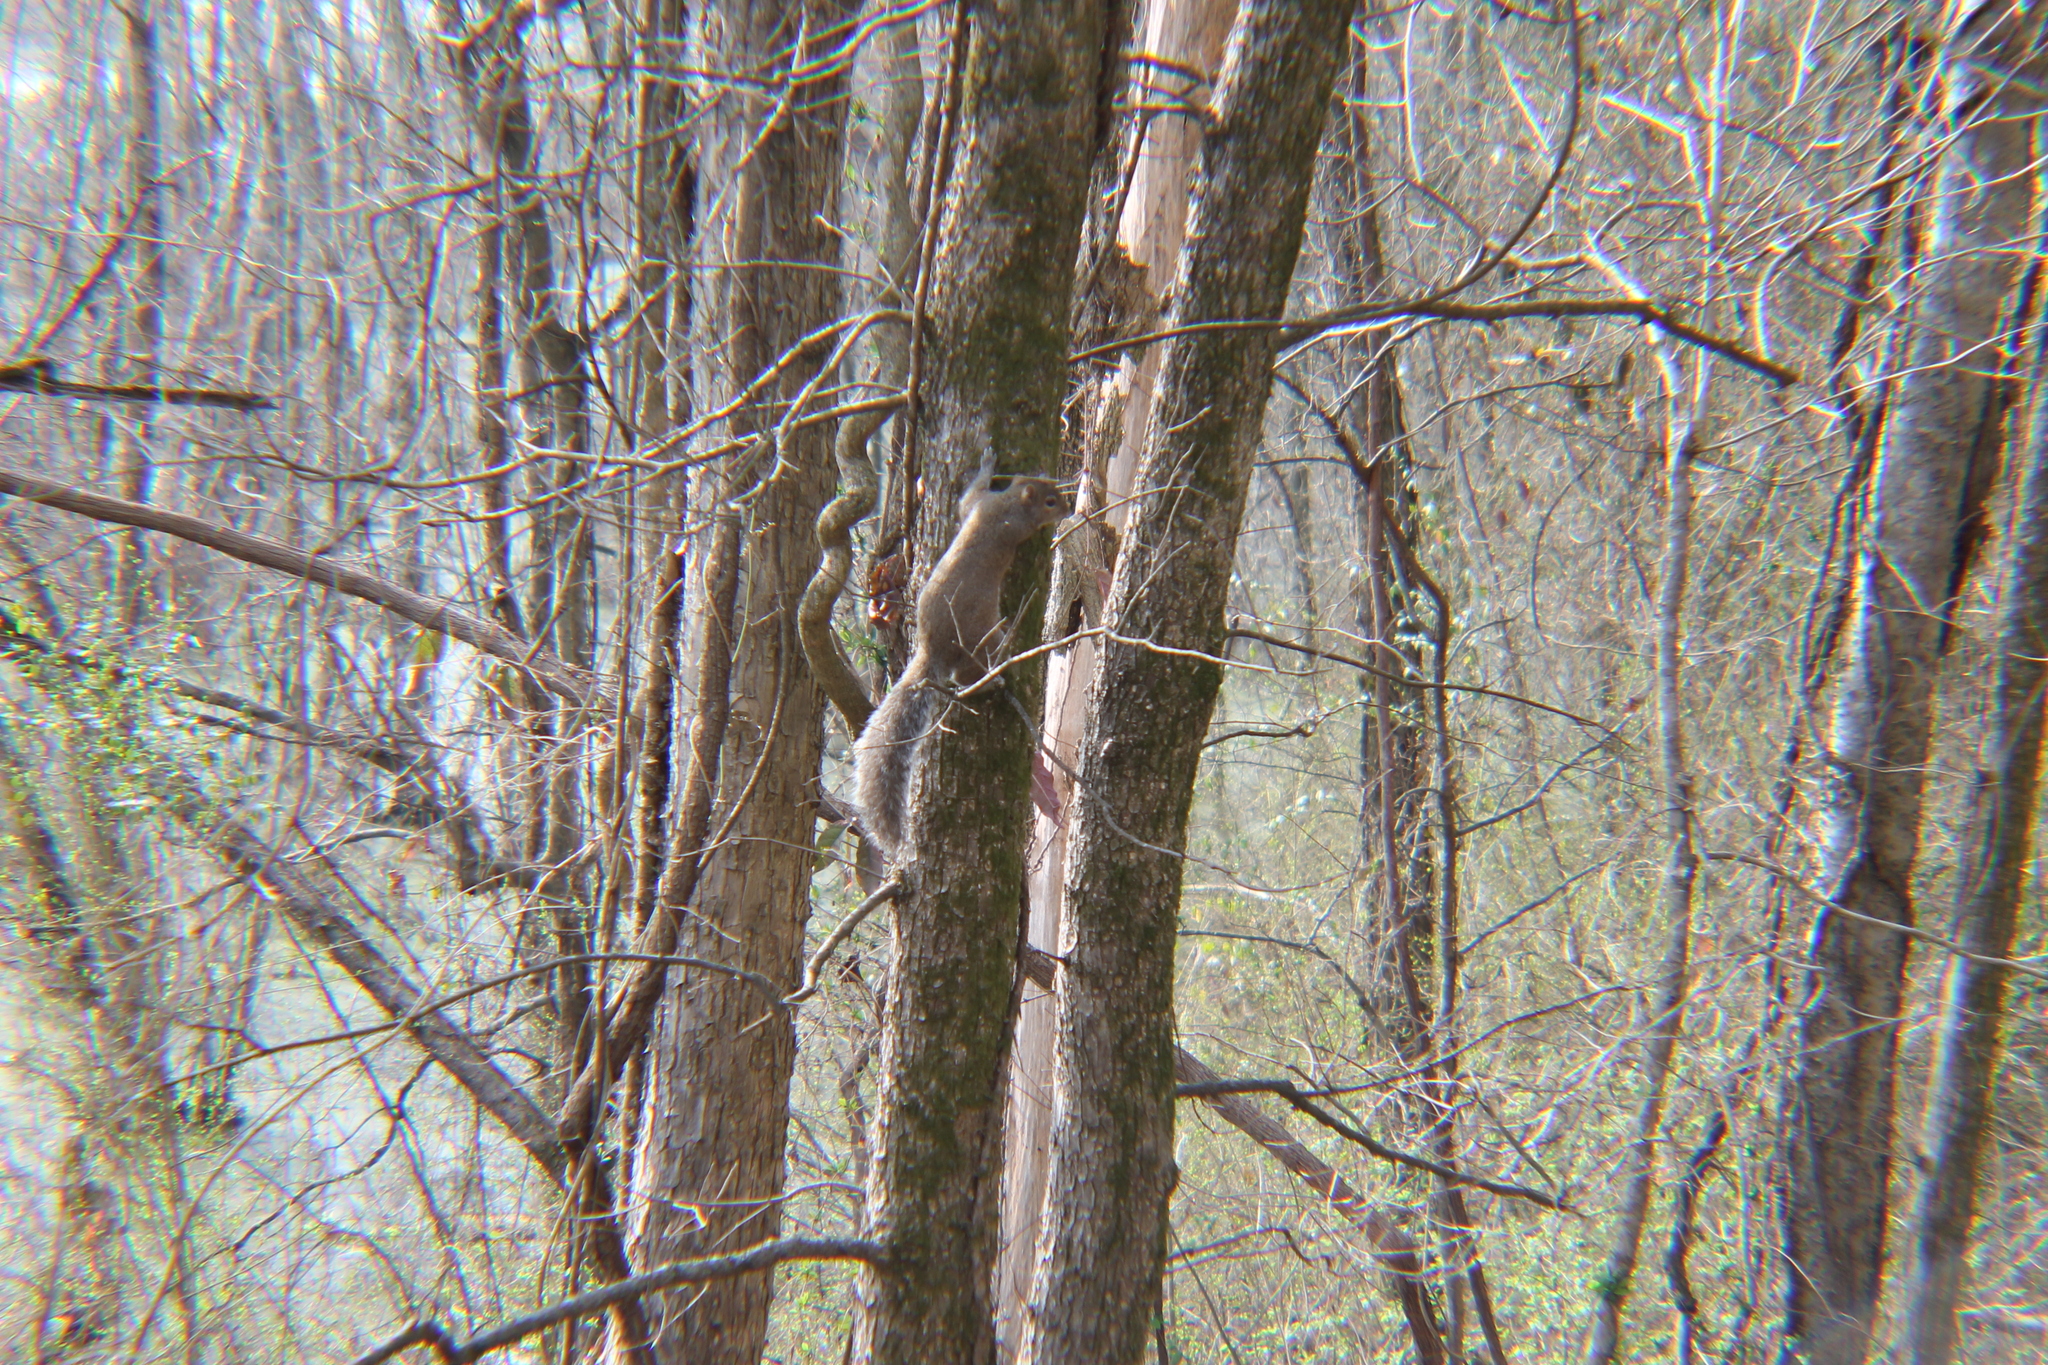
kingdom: Animalia
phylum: Chordata
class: Mammalia
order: Rodentia
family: Sciuridae
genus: Sciurus
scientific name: Sciurus carolinensis
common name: Eastern gray squirrel
